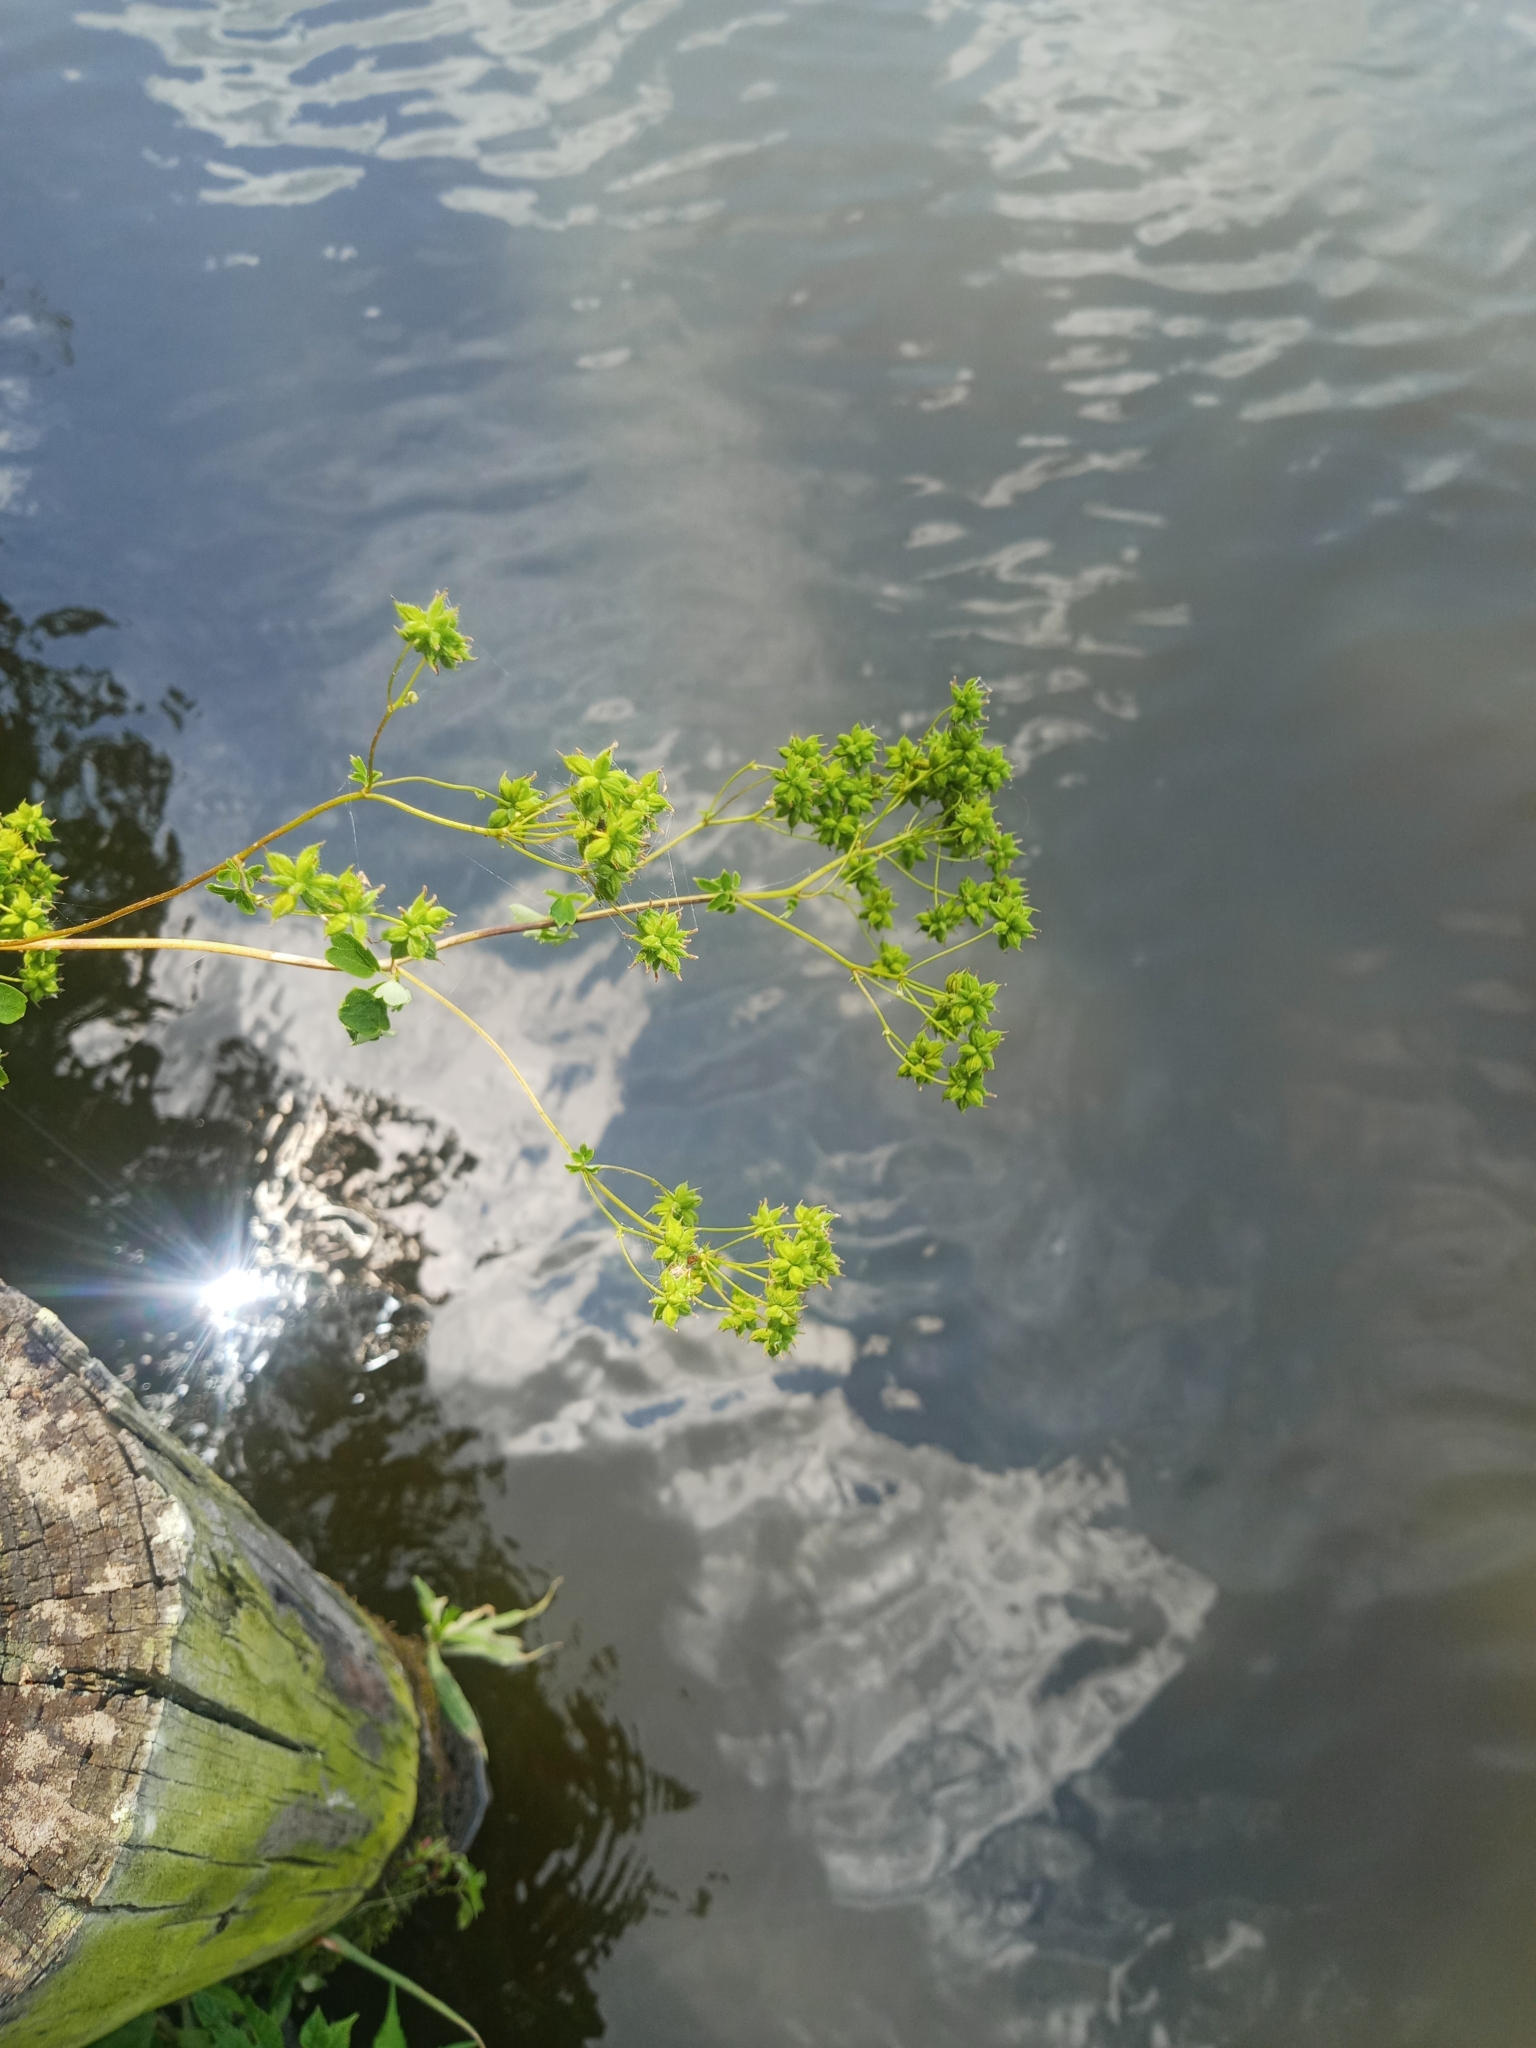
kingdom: Plantae
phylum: Tracheophyta
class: Magnoliopsida
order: Ranunculales
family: Ranunculaceae
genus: Thalictrum
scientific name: Thalictrum pubescens
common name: King-of-the-meadow
